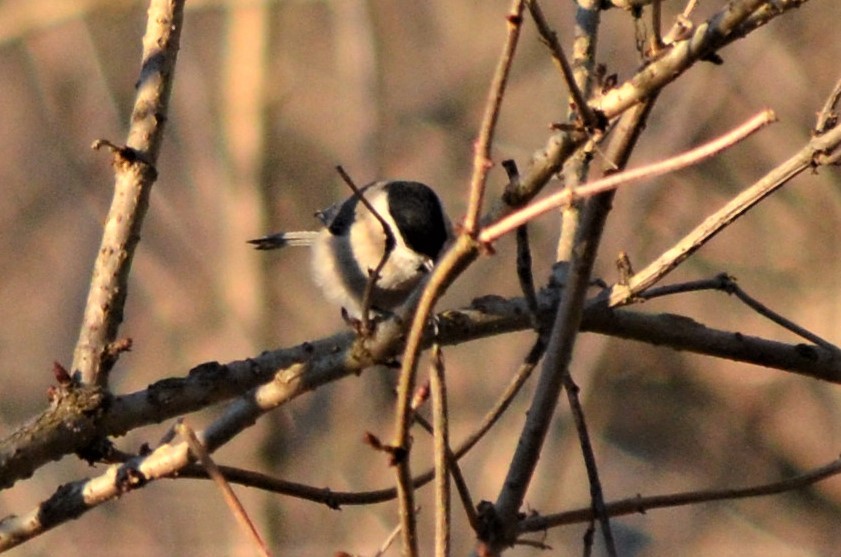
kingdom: Animalia
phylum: Chordata
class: Aves
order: Passeriformes
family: Paridae
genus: Poecile
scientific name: Poecile palustris
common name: Marsh tit
